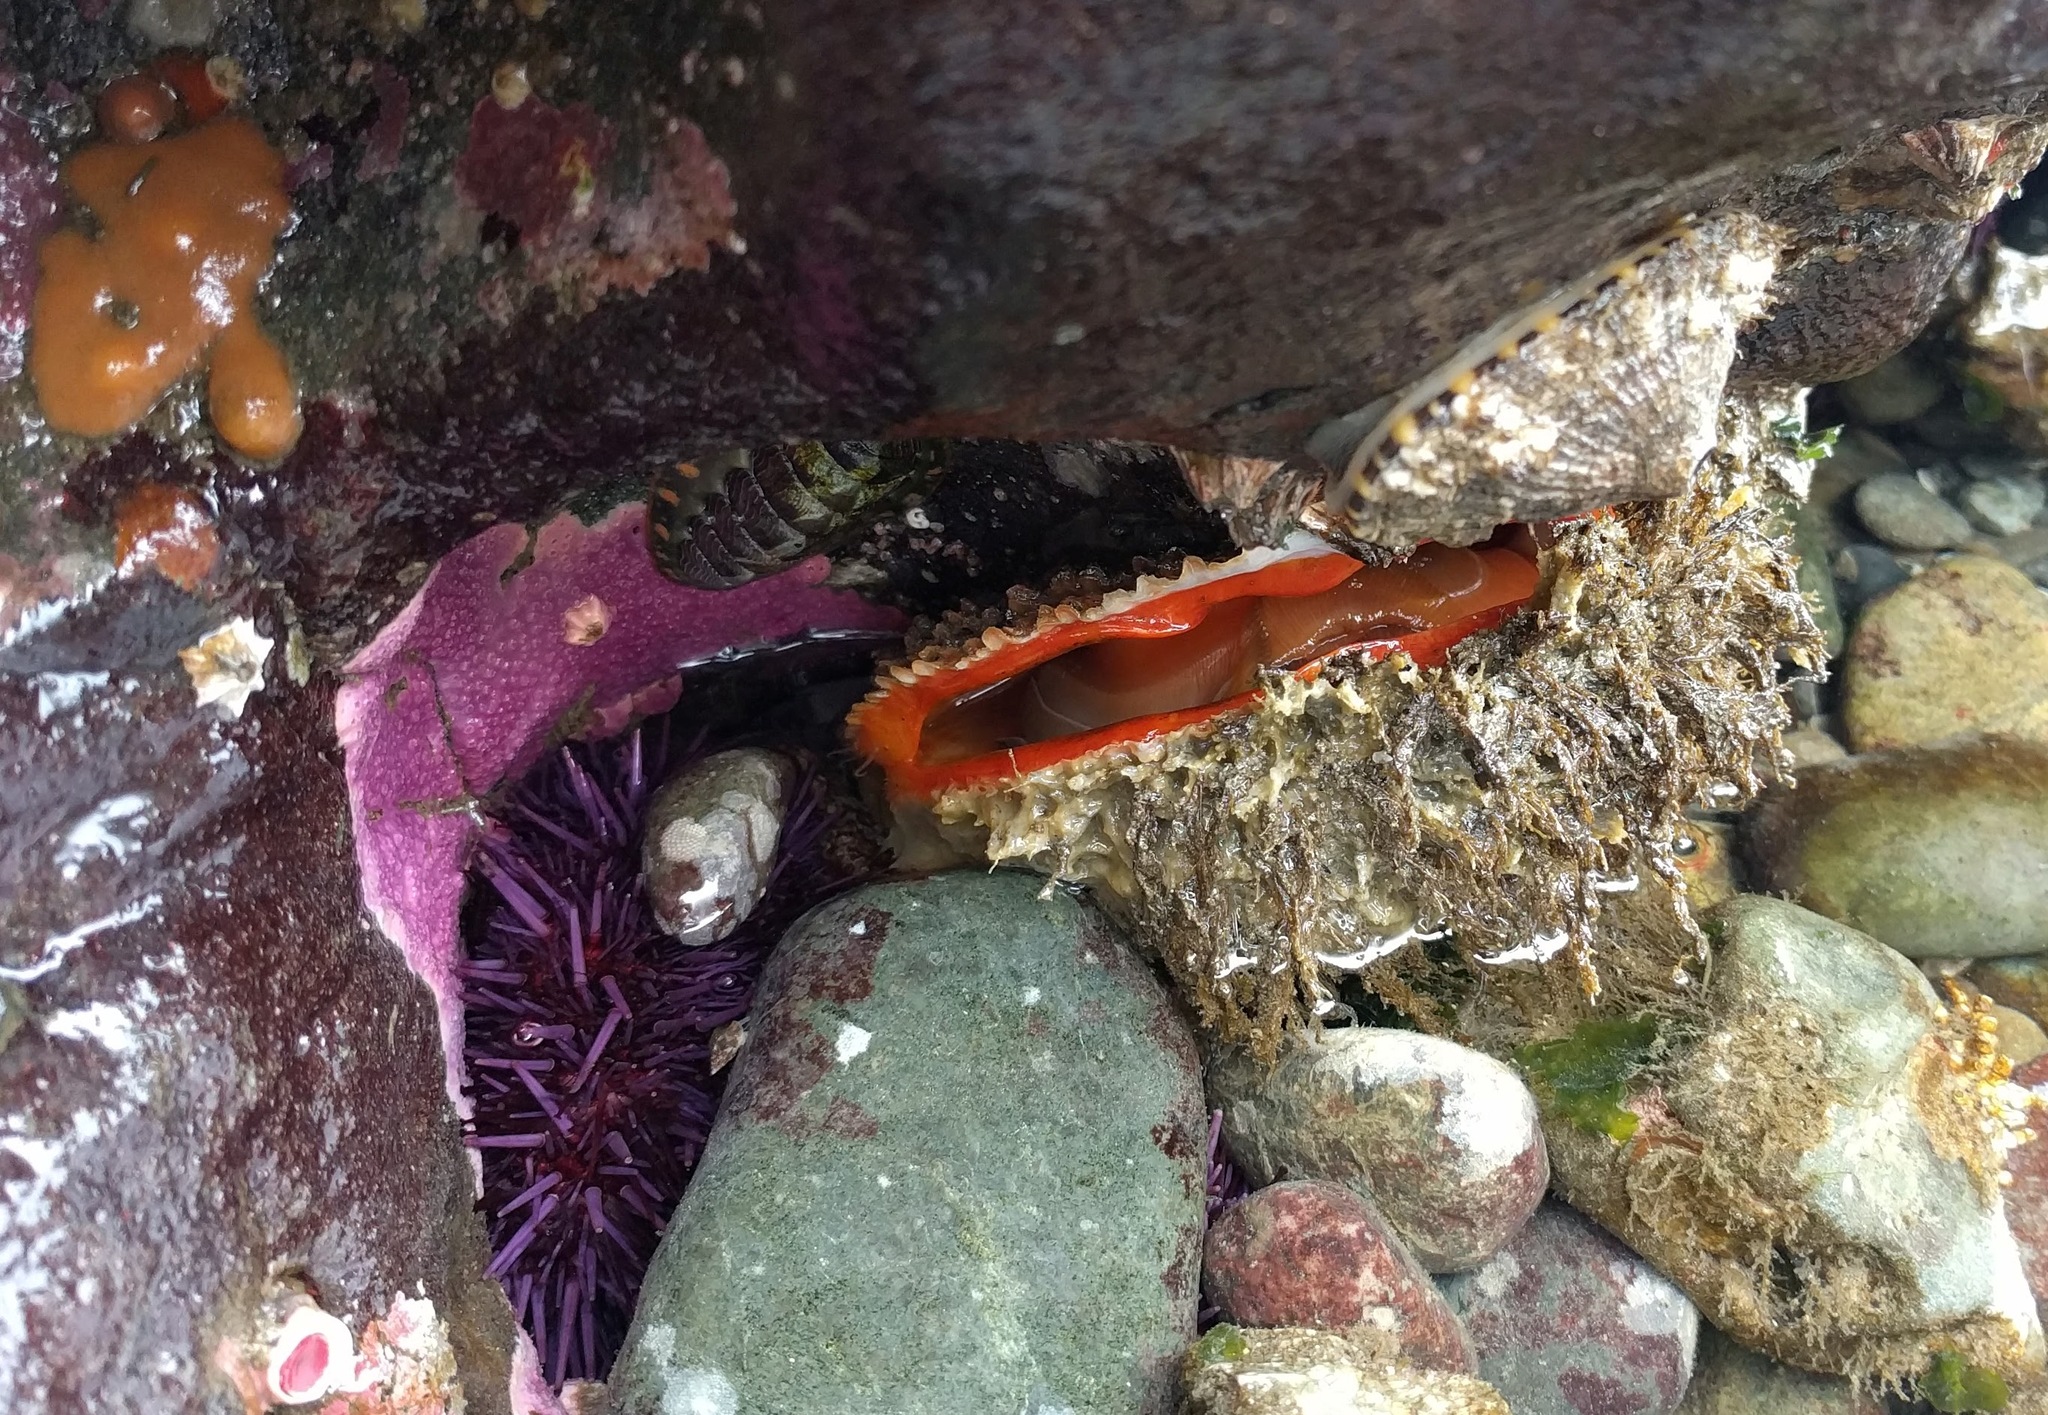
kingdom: Animalia
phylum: Mollusca
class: Bivalvia
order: Pectinida
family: Pectinidae
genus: Crassadoma
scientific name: Crassadoma gigantea
